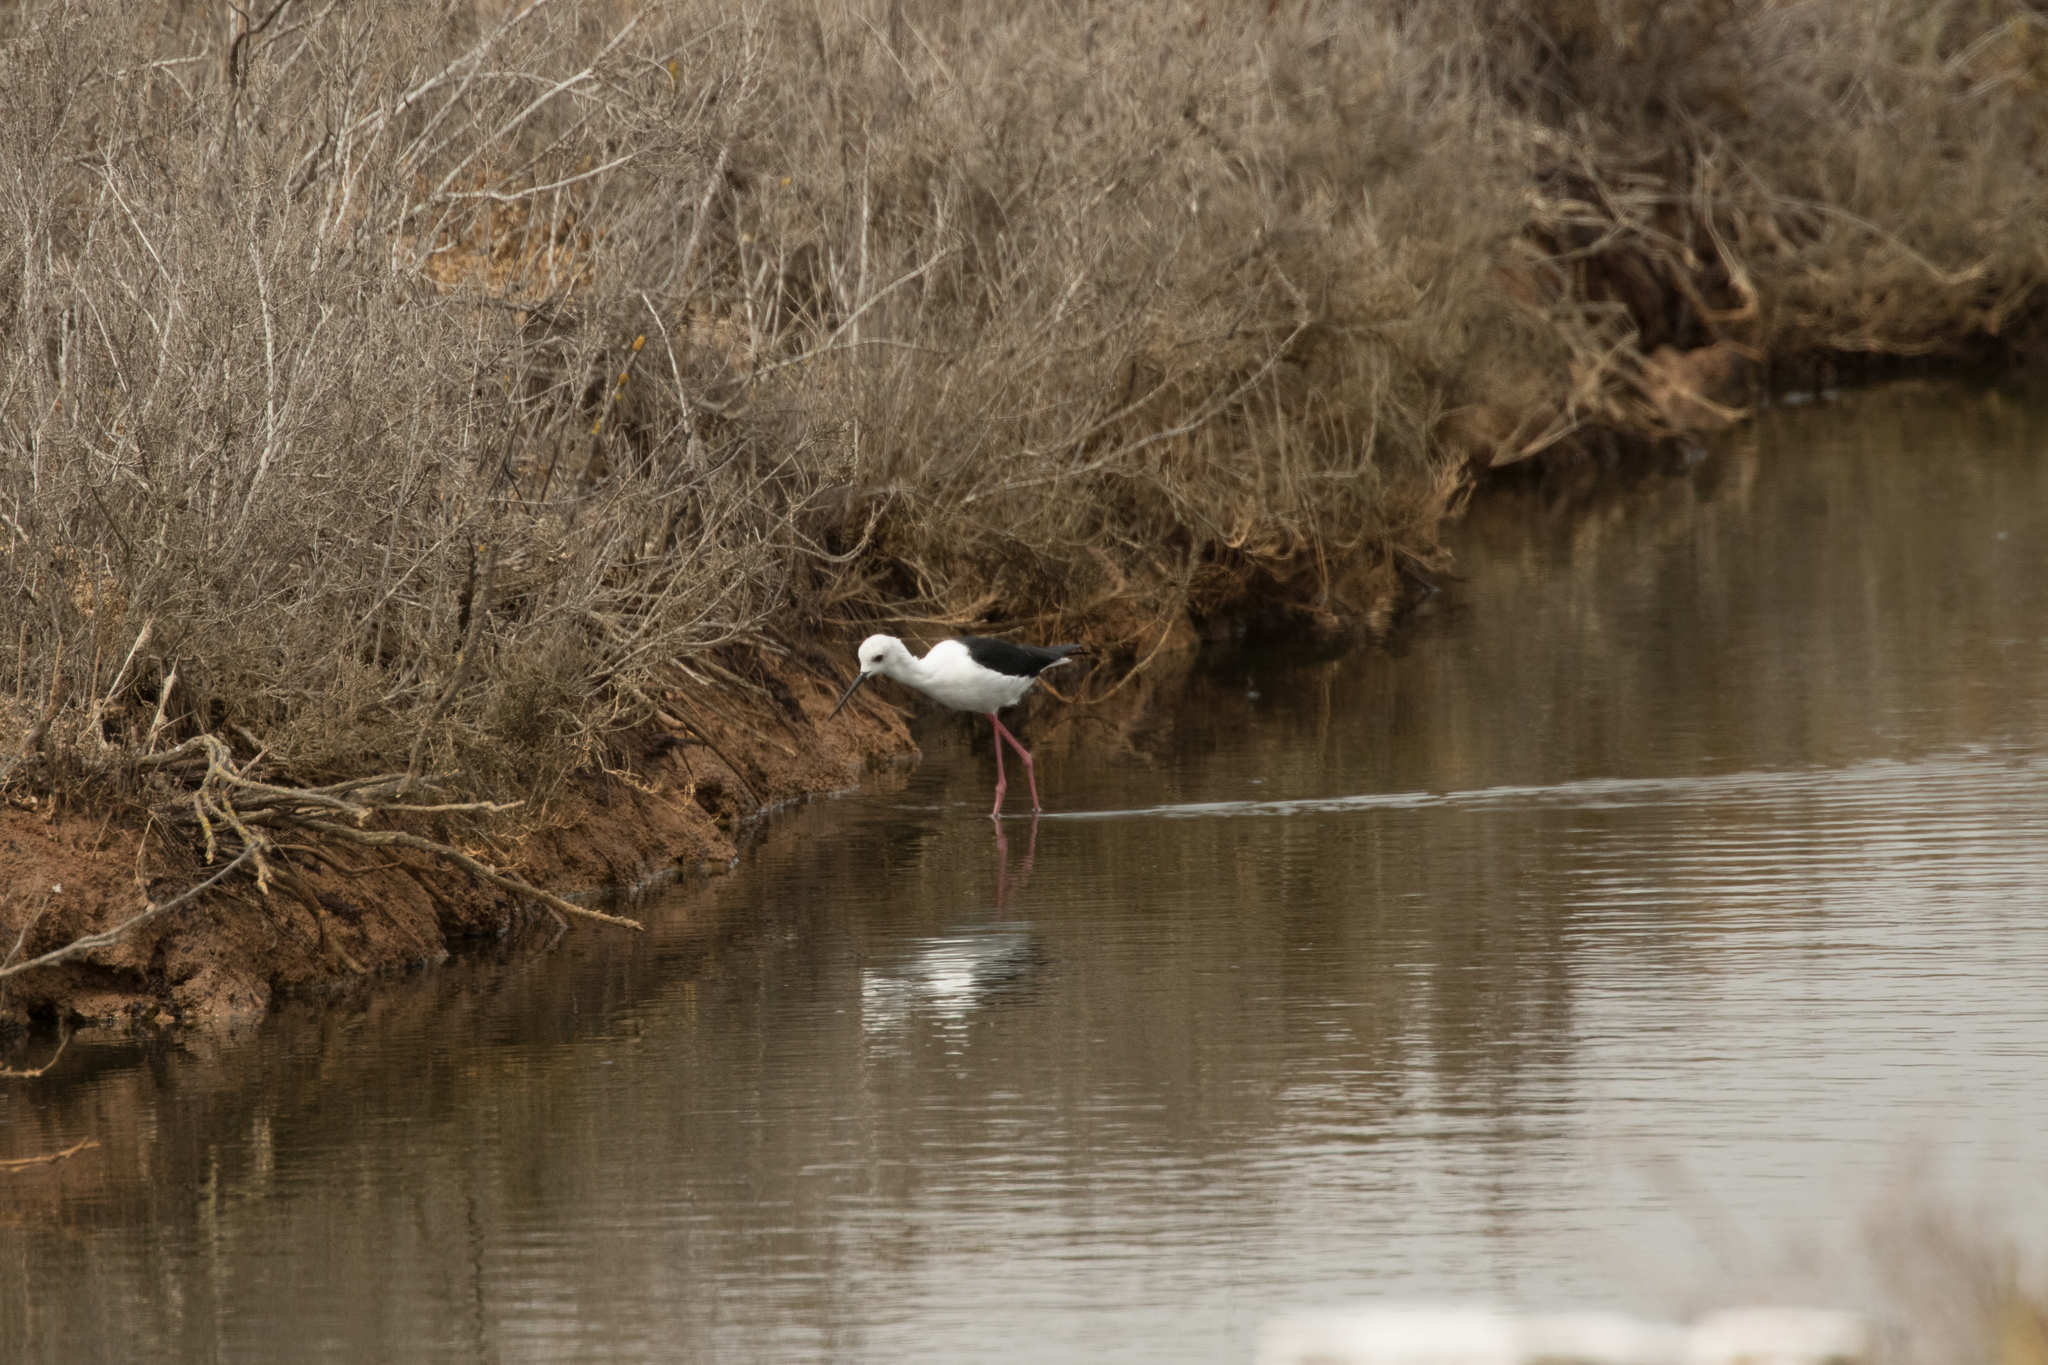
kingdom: Animalia
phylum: Chordata
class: Aves
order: Charadriiformes
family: Recurvirostridae
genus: Himantopus
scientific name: Himantopus himantopus
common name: Black-winged stilt
